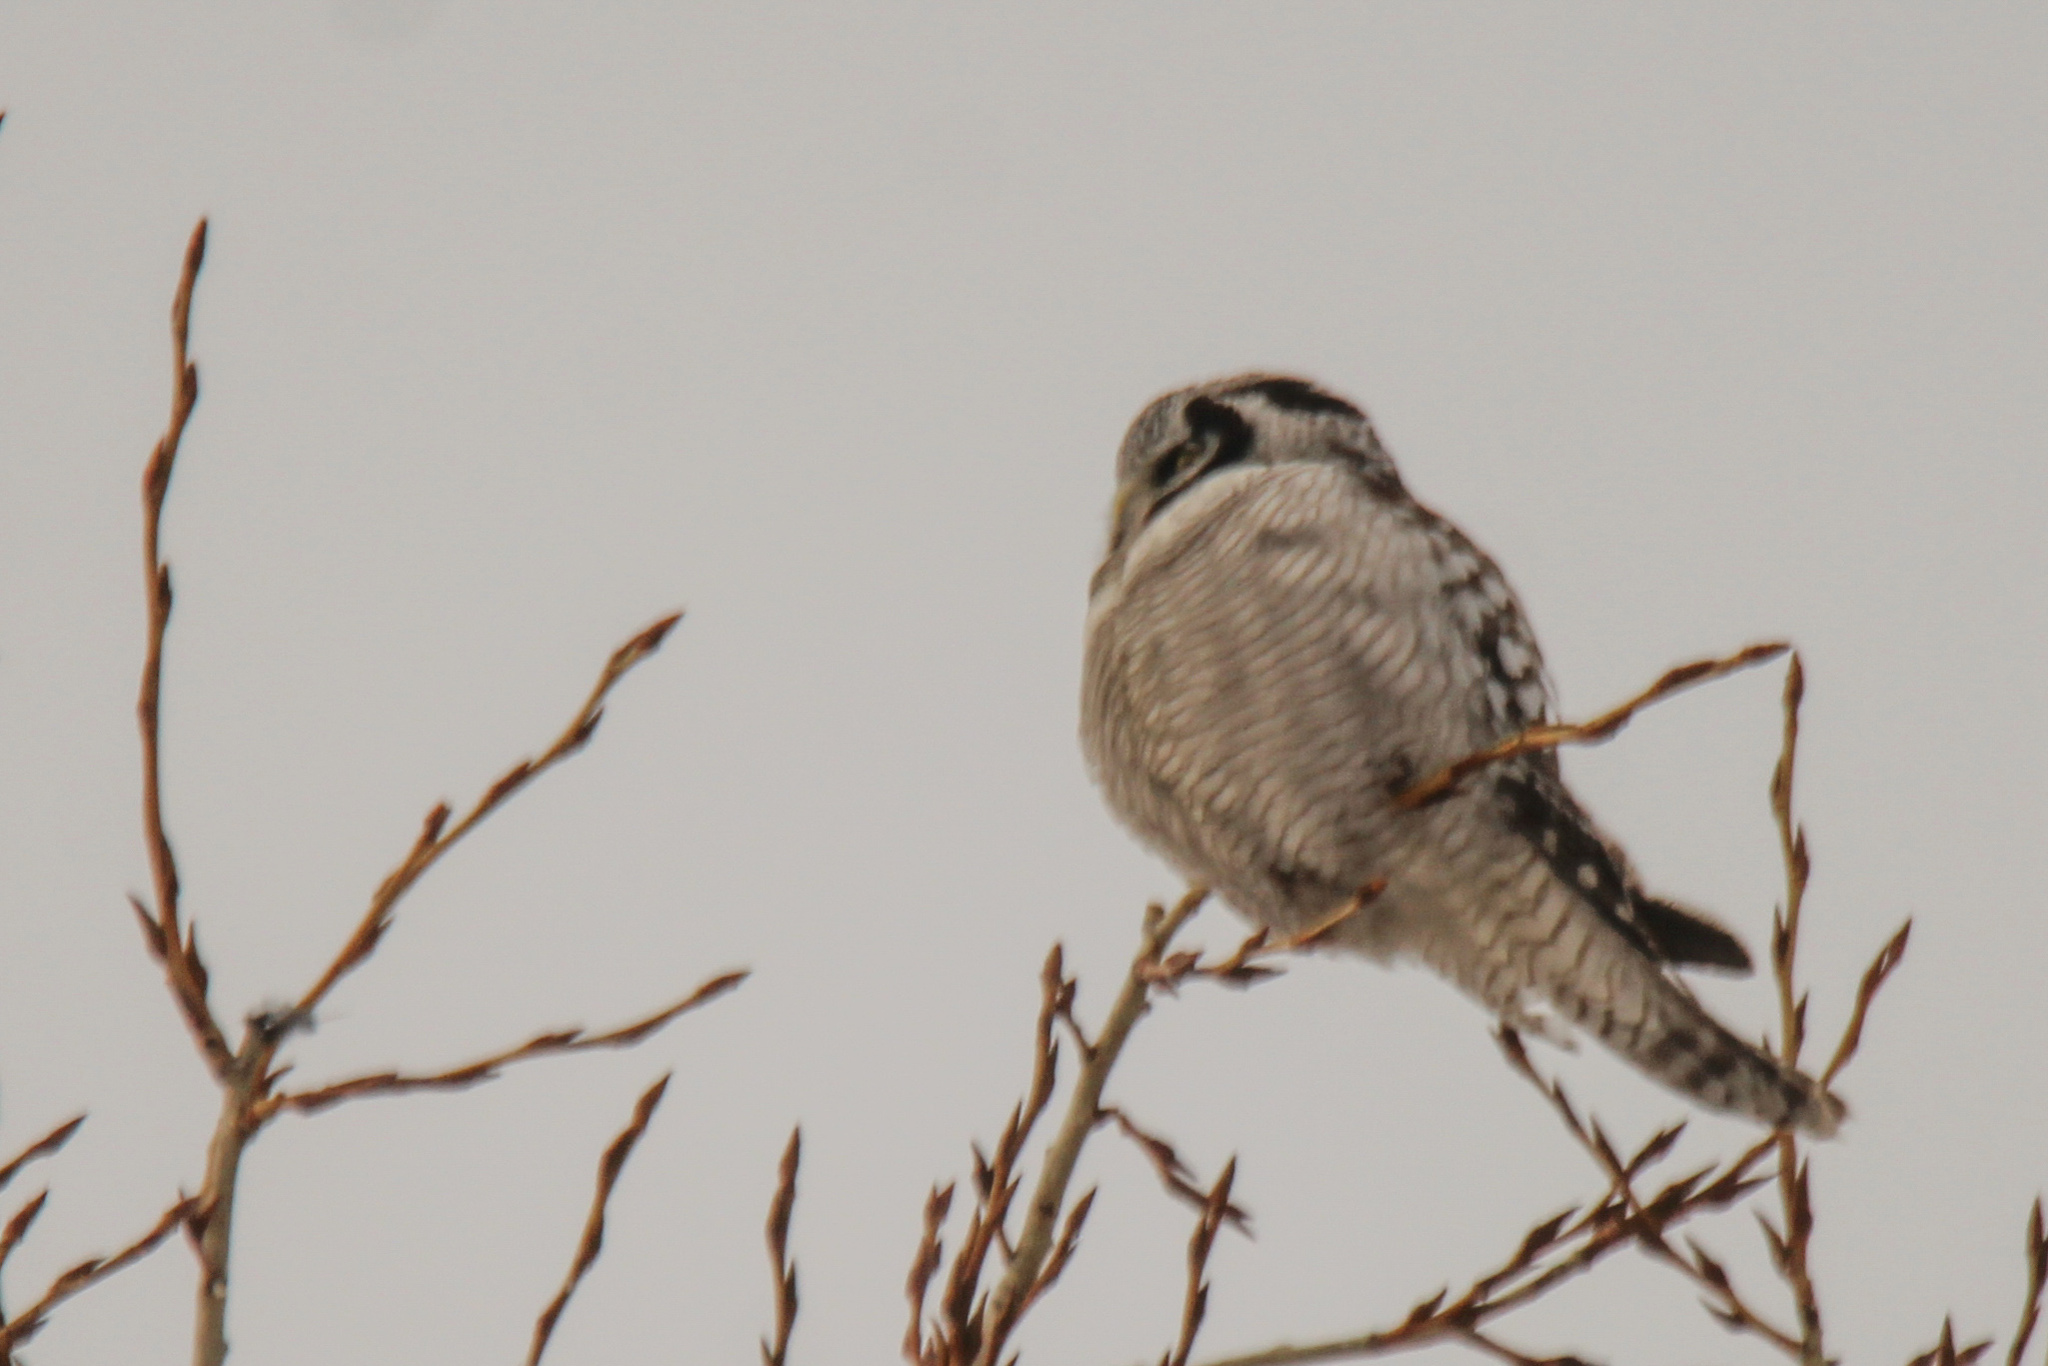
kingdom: Animalia
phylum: Chordata
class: Aves
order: Strigiformes
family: Strigidae
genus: Surnia
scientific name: Surnia ulula
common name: Northern hawk-owl
